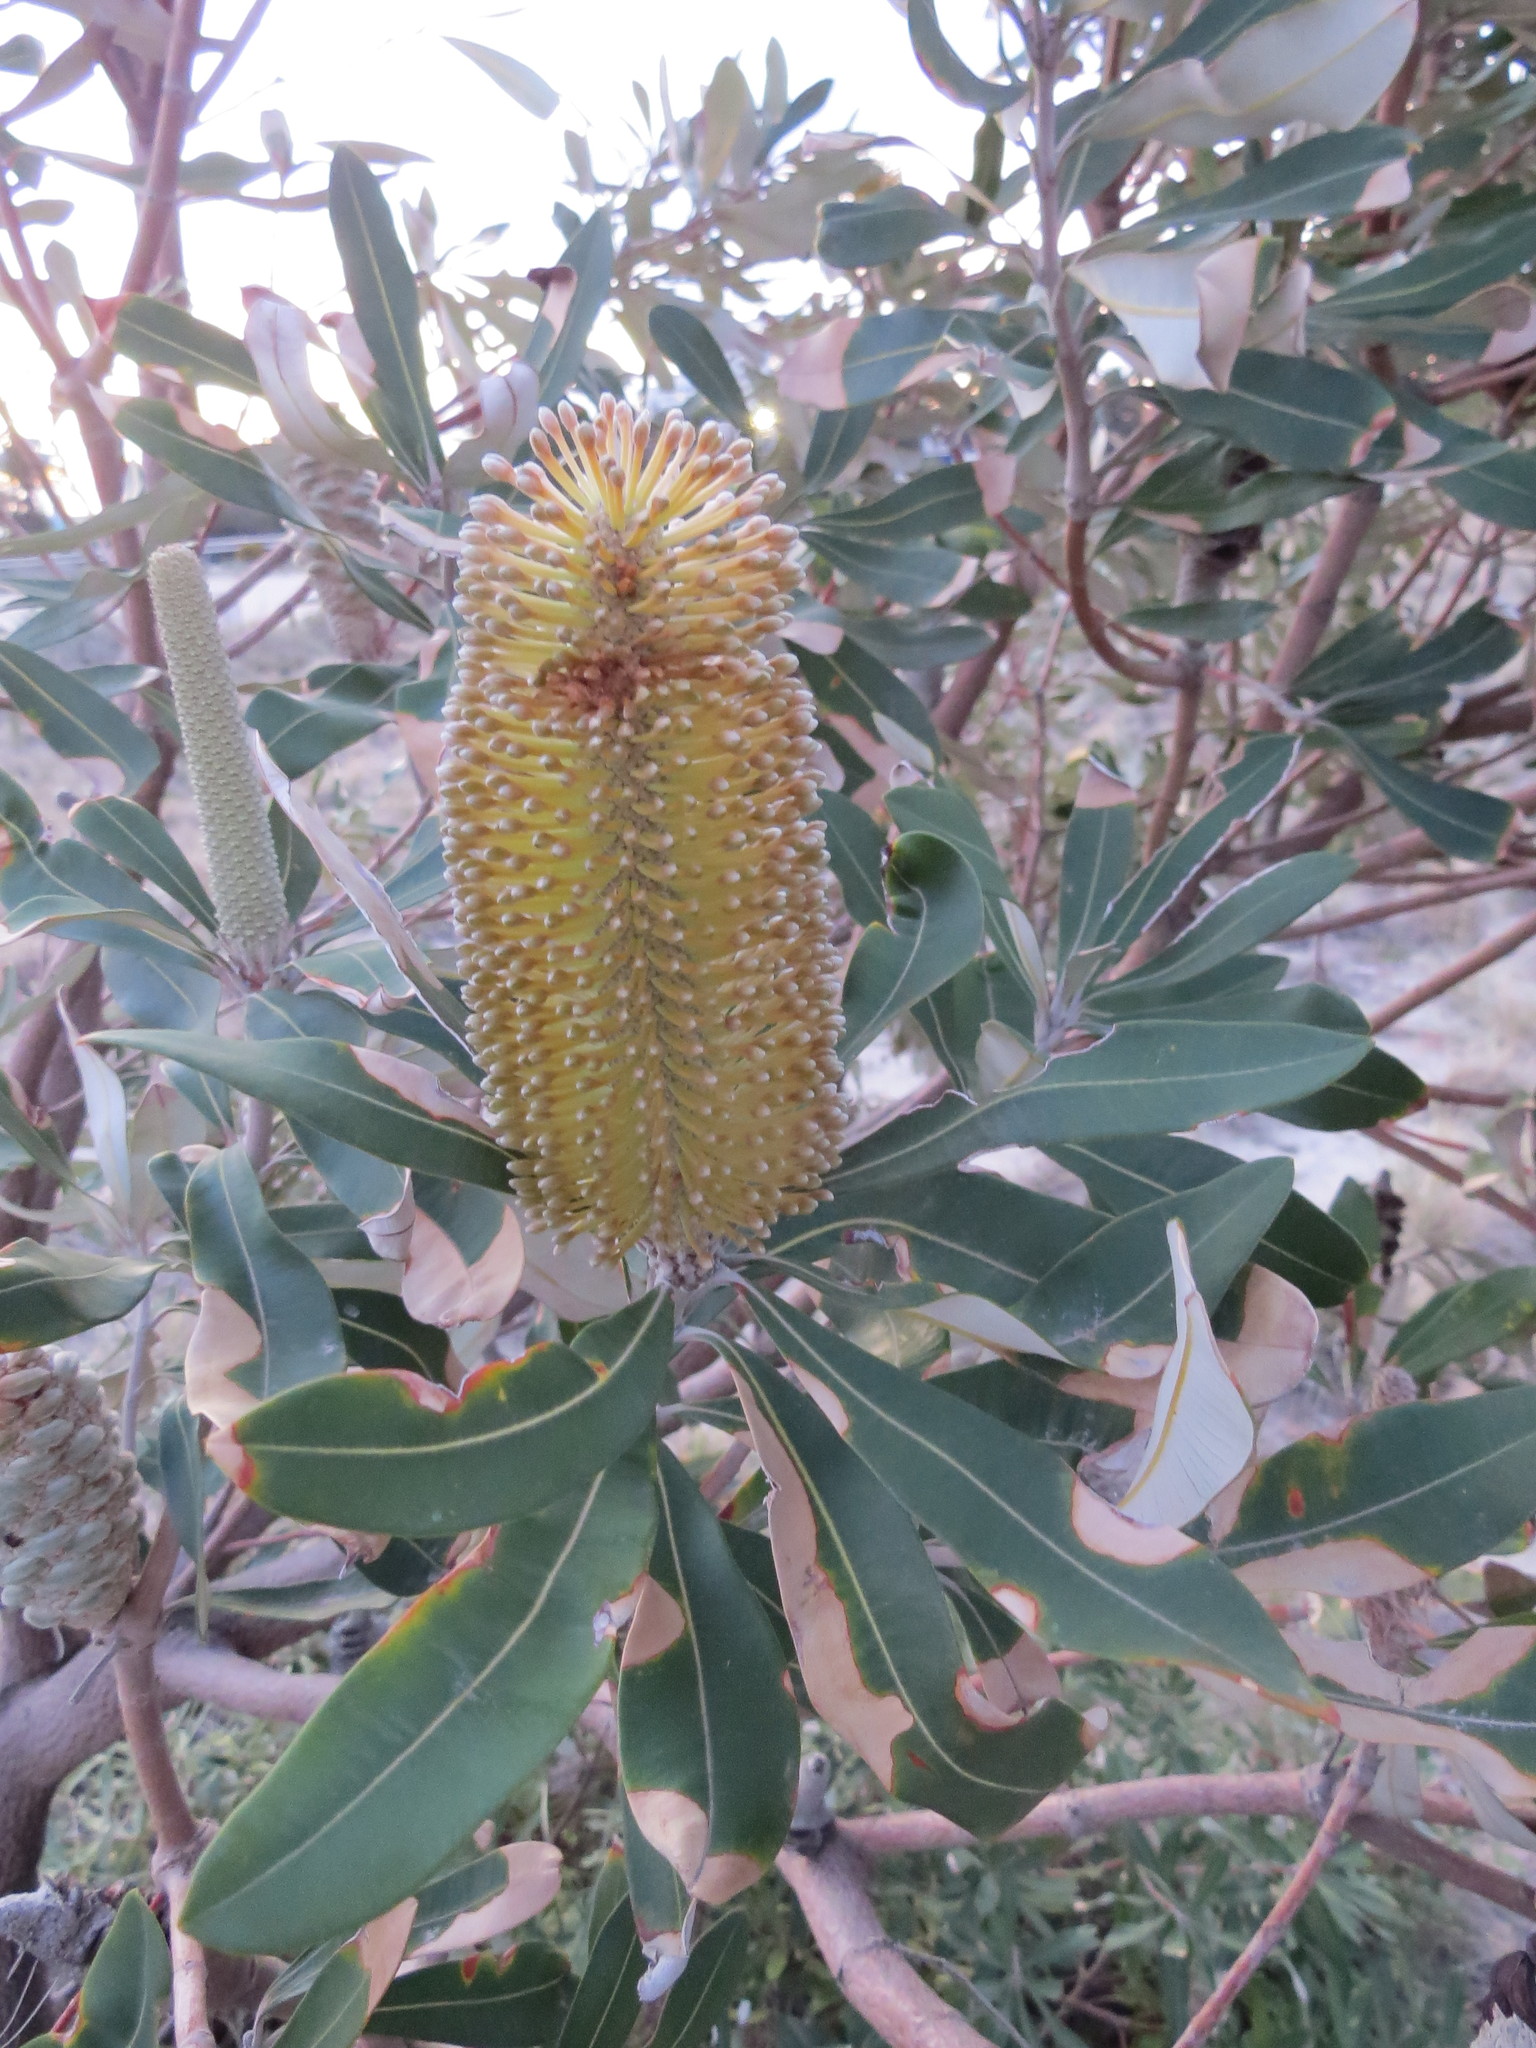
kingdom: Plantae
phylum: Tracheophyta
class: Magnoliopsida
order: Proteales
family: Proteaceae
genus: Banksia
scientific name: Banksia integrifolia
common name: White-honeysuckle
